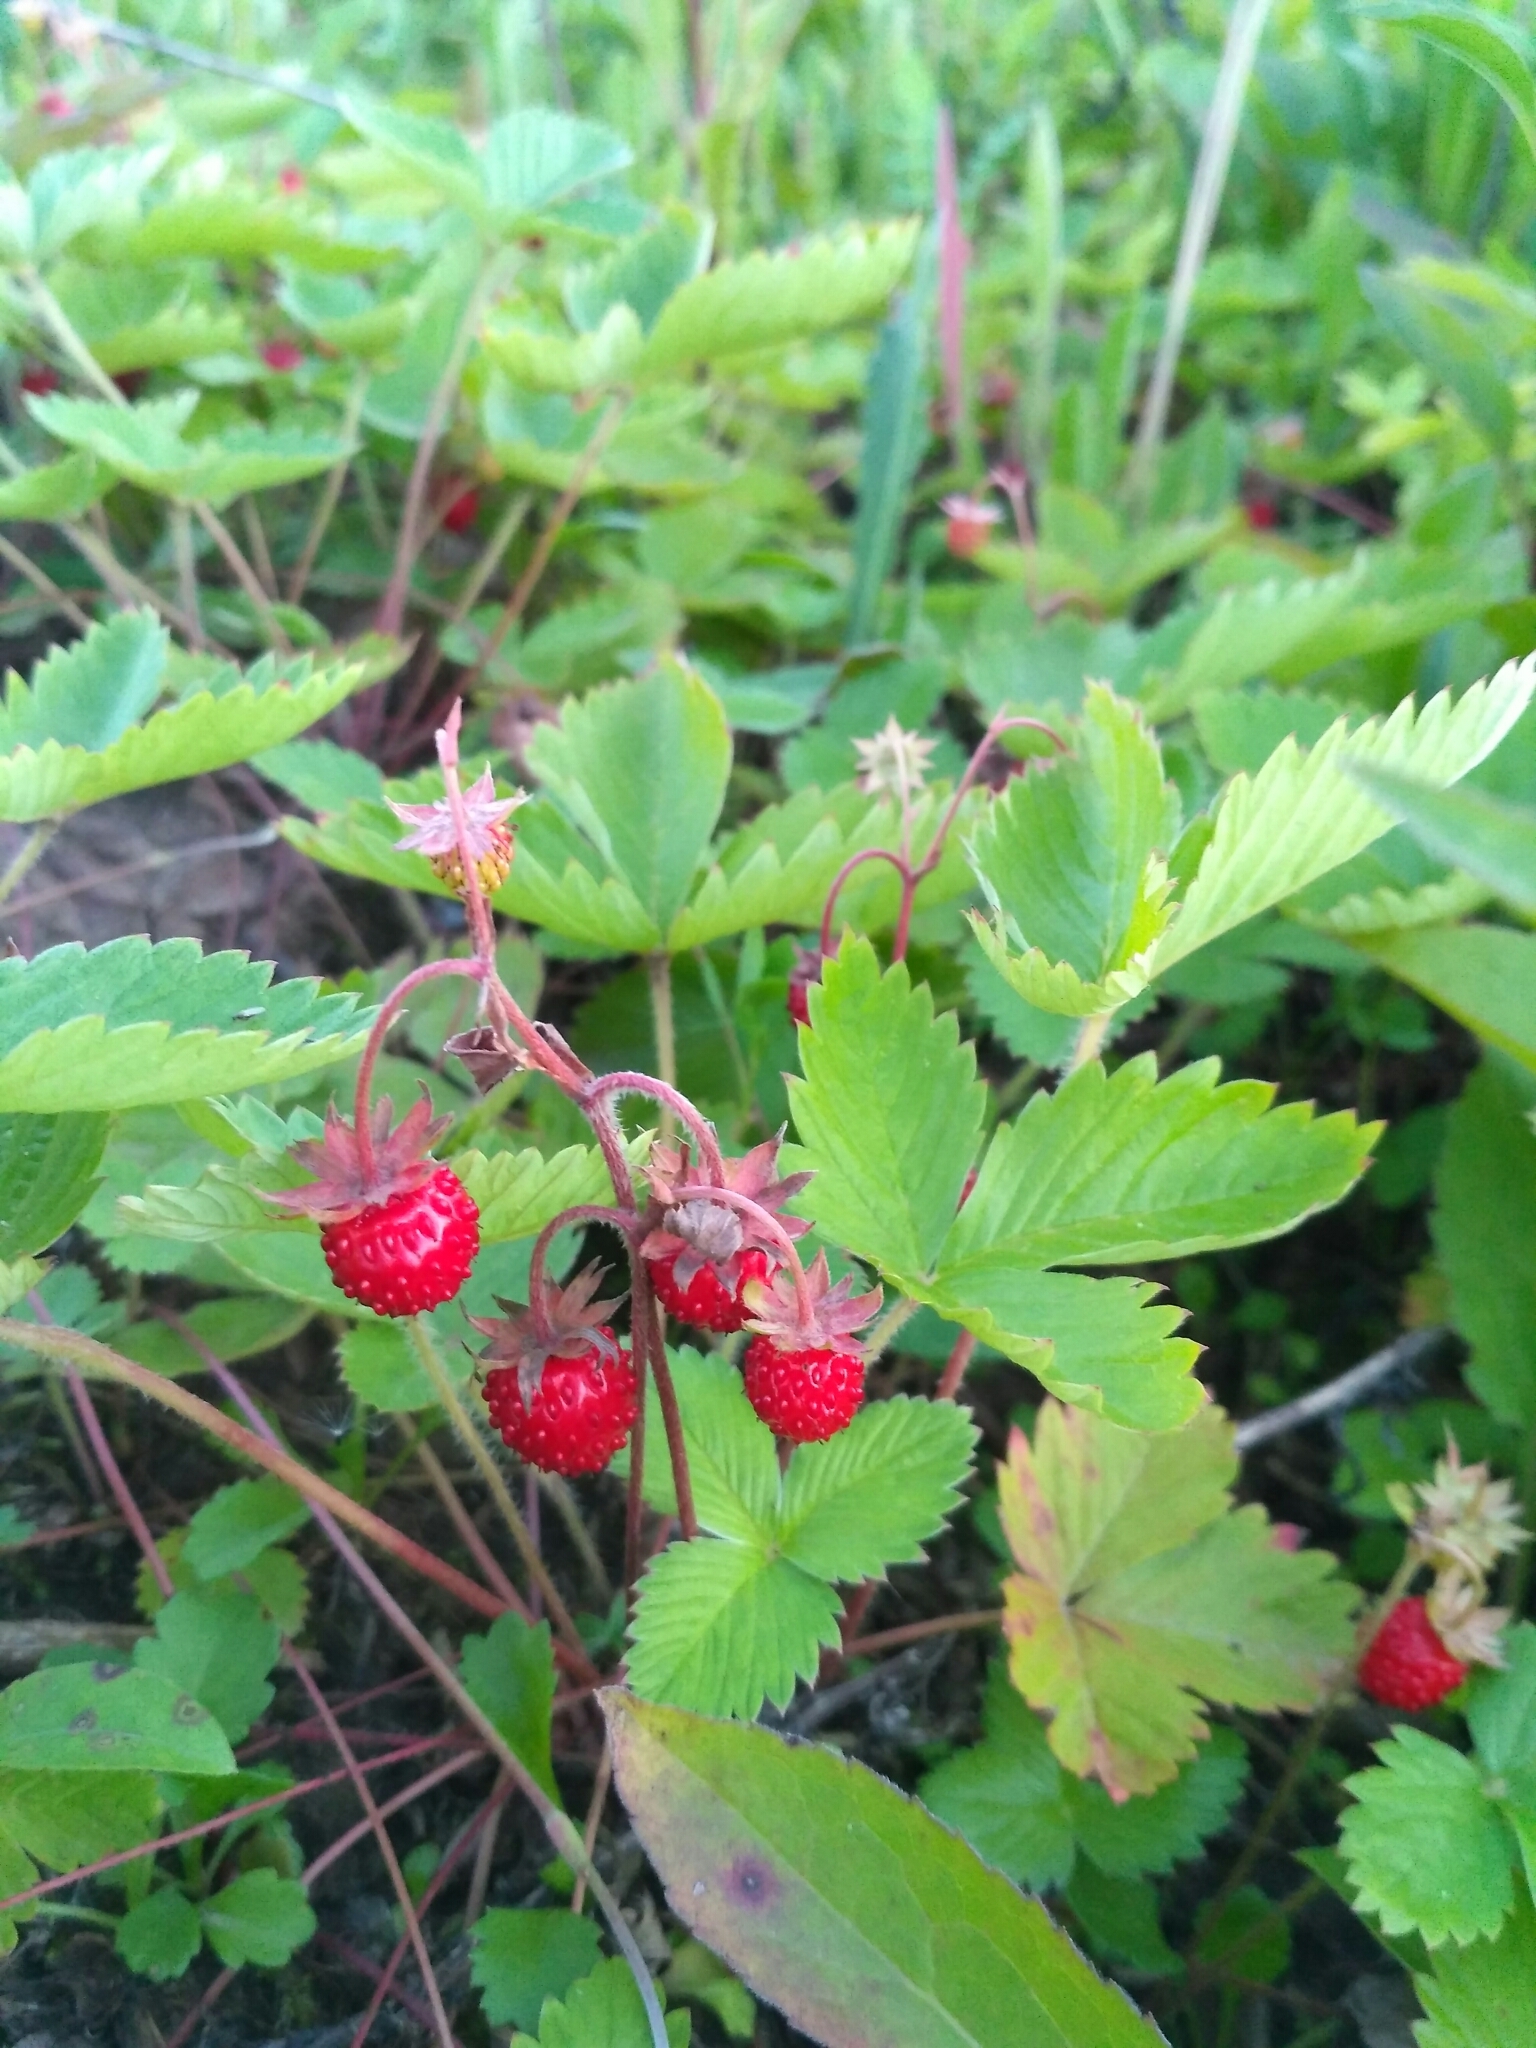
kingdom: Plantae
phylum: Tracheophyta
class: Magnoliopsida
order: Rosales
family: Rosaceae
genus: Fragaria
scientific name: Fragaria vesca
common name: Wild strawberry
